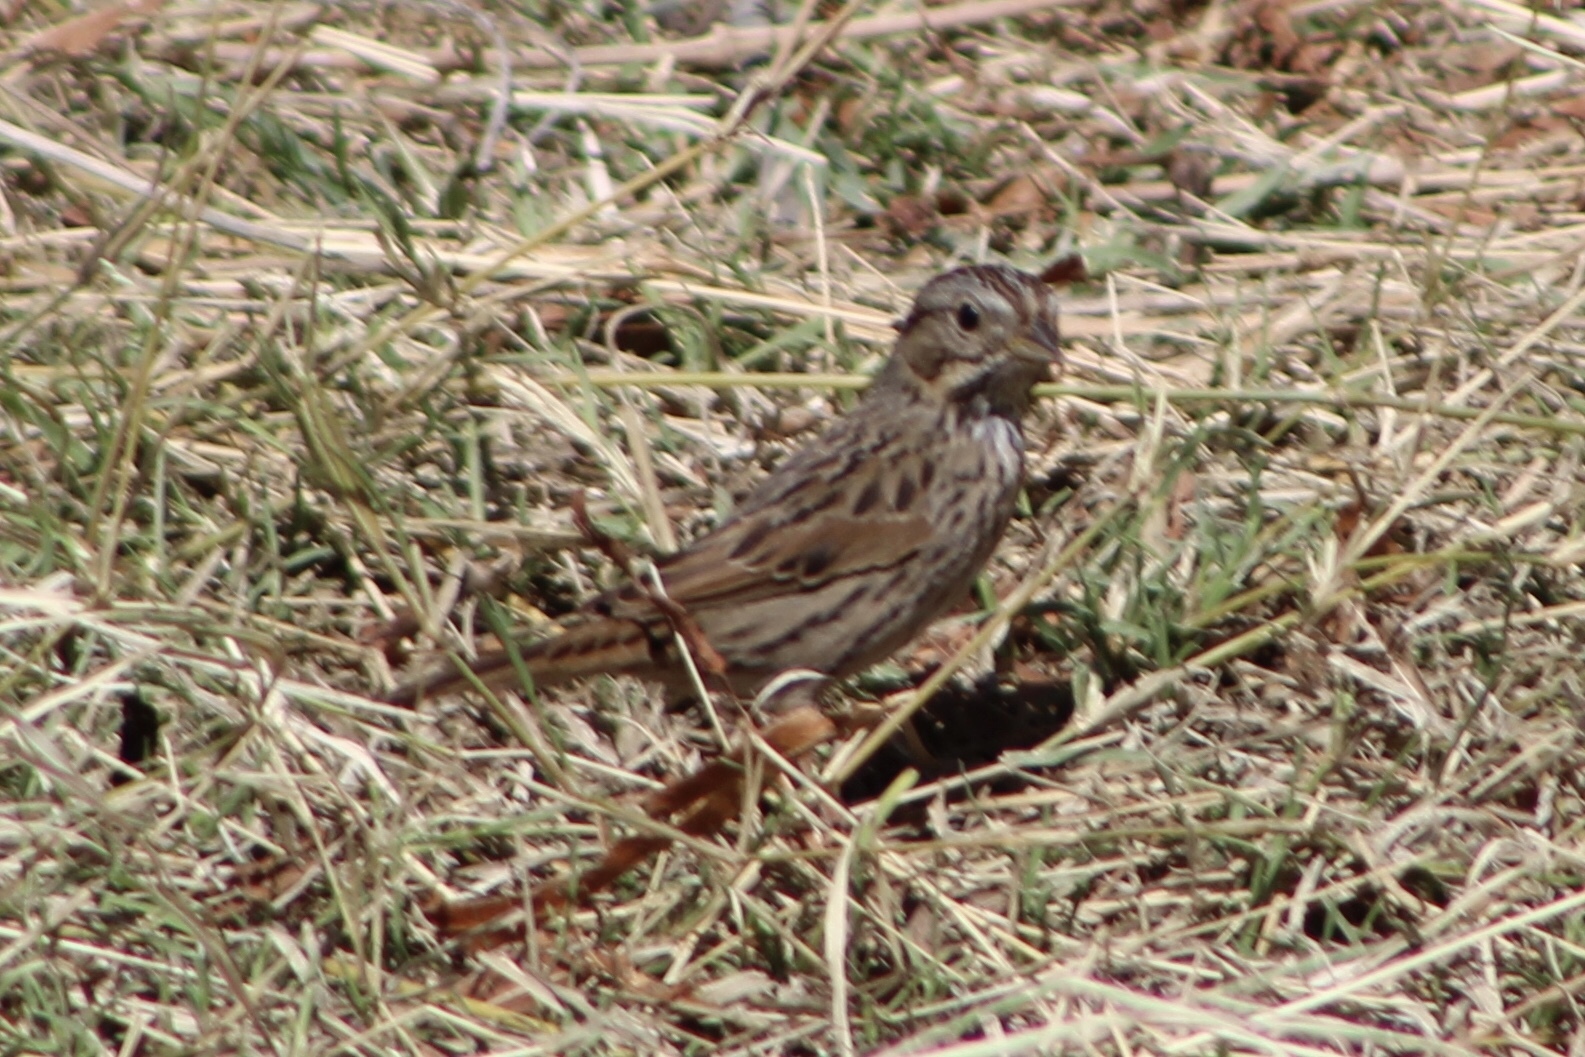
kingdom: Animalia
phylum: Chordata
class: Aves
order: Passeriformes
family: Passerellidae
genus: Melospiza
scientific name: Melospiza lincolnii
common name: Lincoln's sparrow
